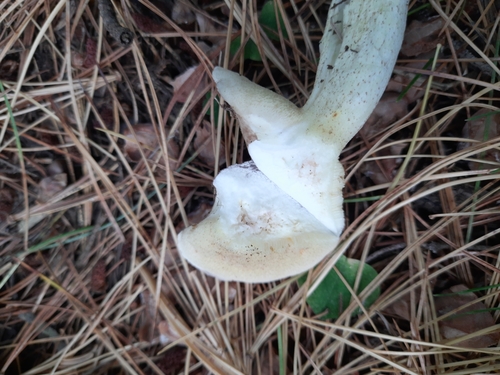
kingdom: Fungi
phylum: Basidiomycota
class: Agaricomycetes
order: Boletales
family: Suillaceae
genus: Suillus
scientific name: Suillus placidus
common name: Slippery white bolete
